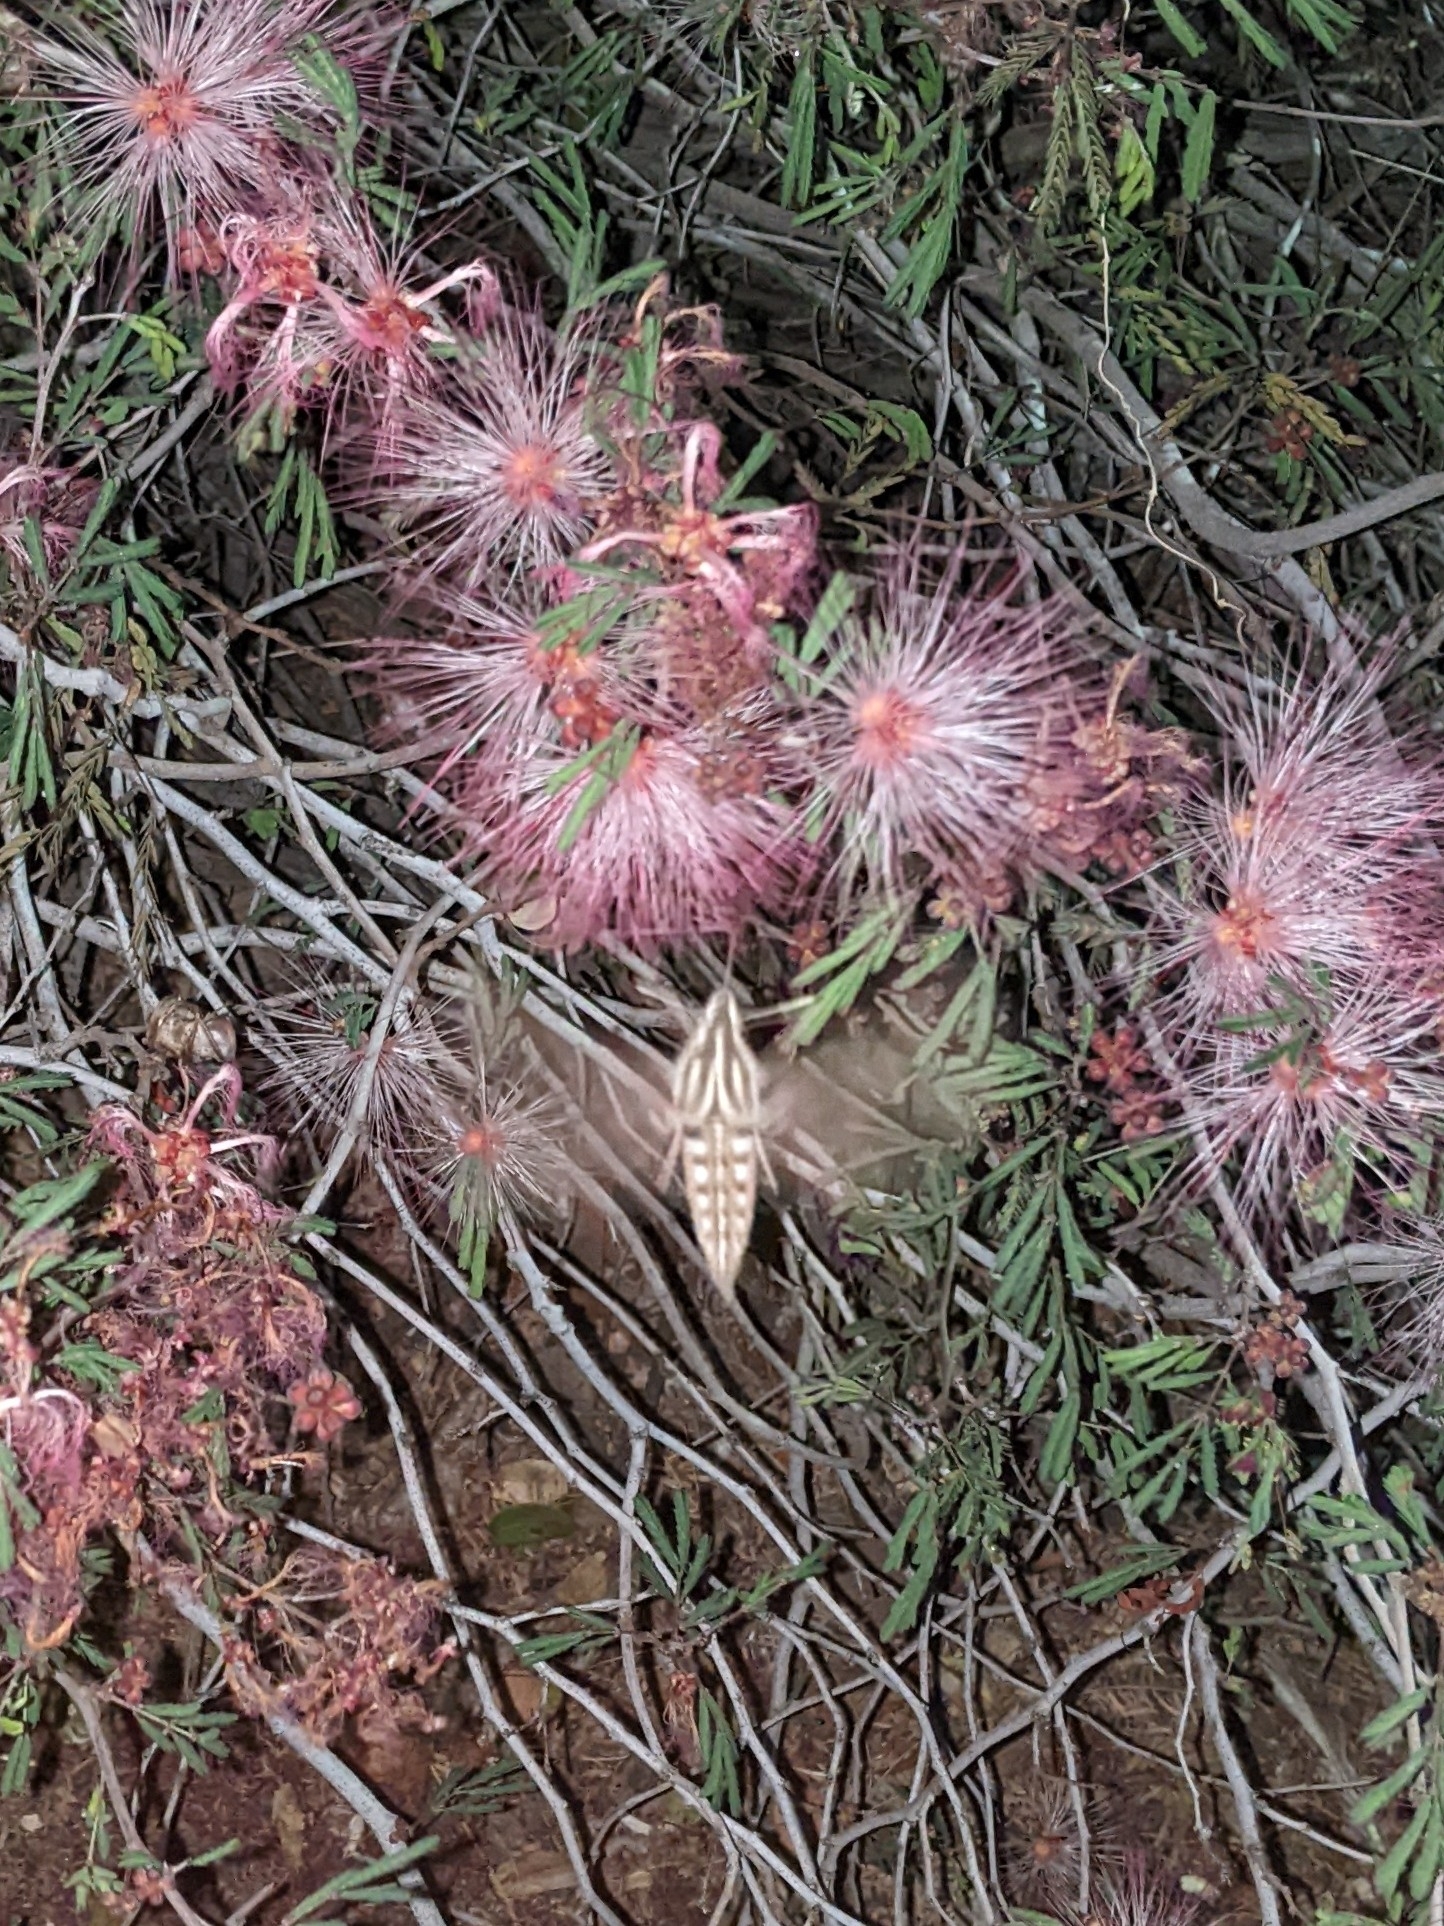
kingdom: Animalia
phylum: Arthropoda
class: Insecta
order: Lepidoptera
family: Sphingidae
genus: Hyles
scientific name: Hyles lineata
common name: White-lined sphinx
